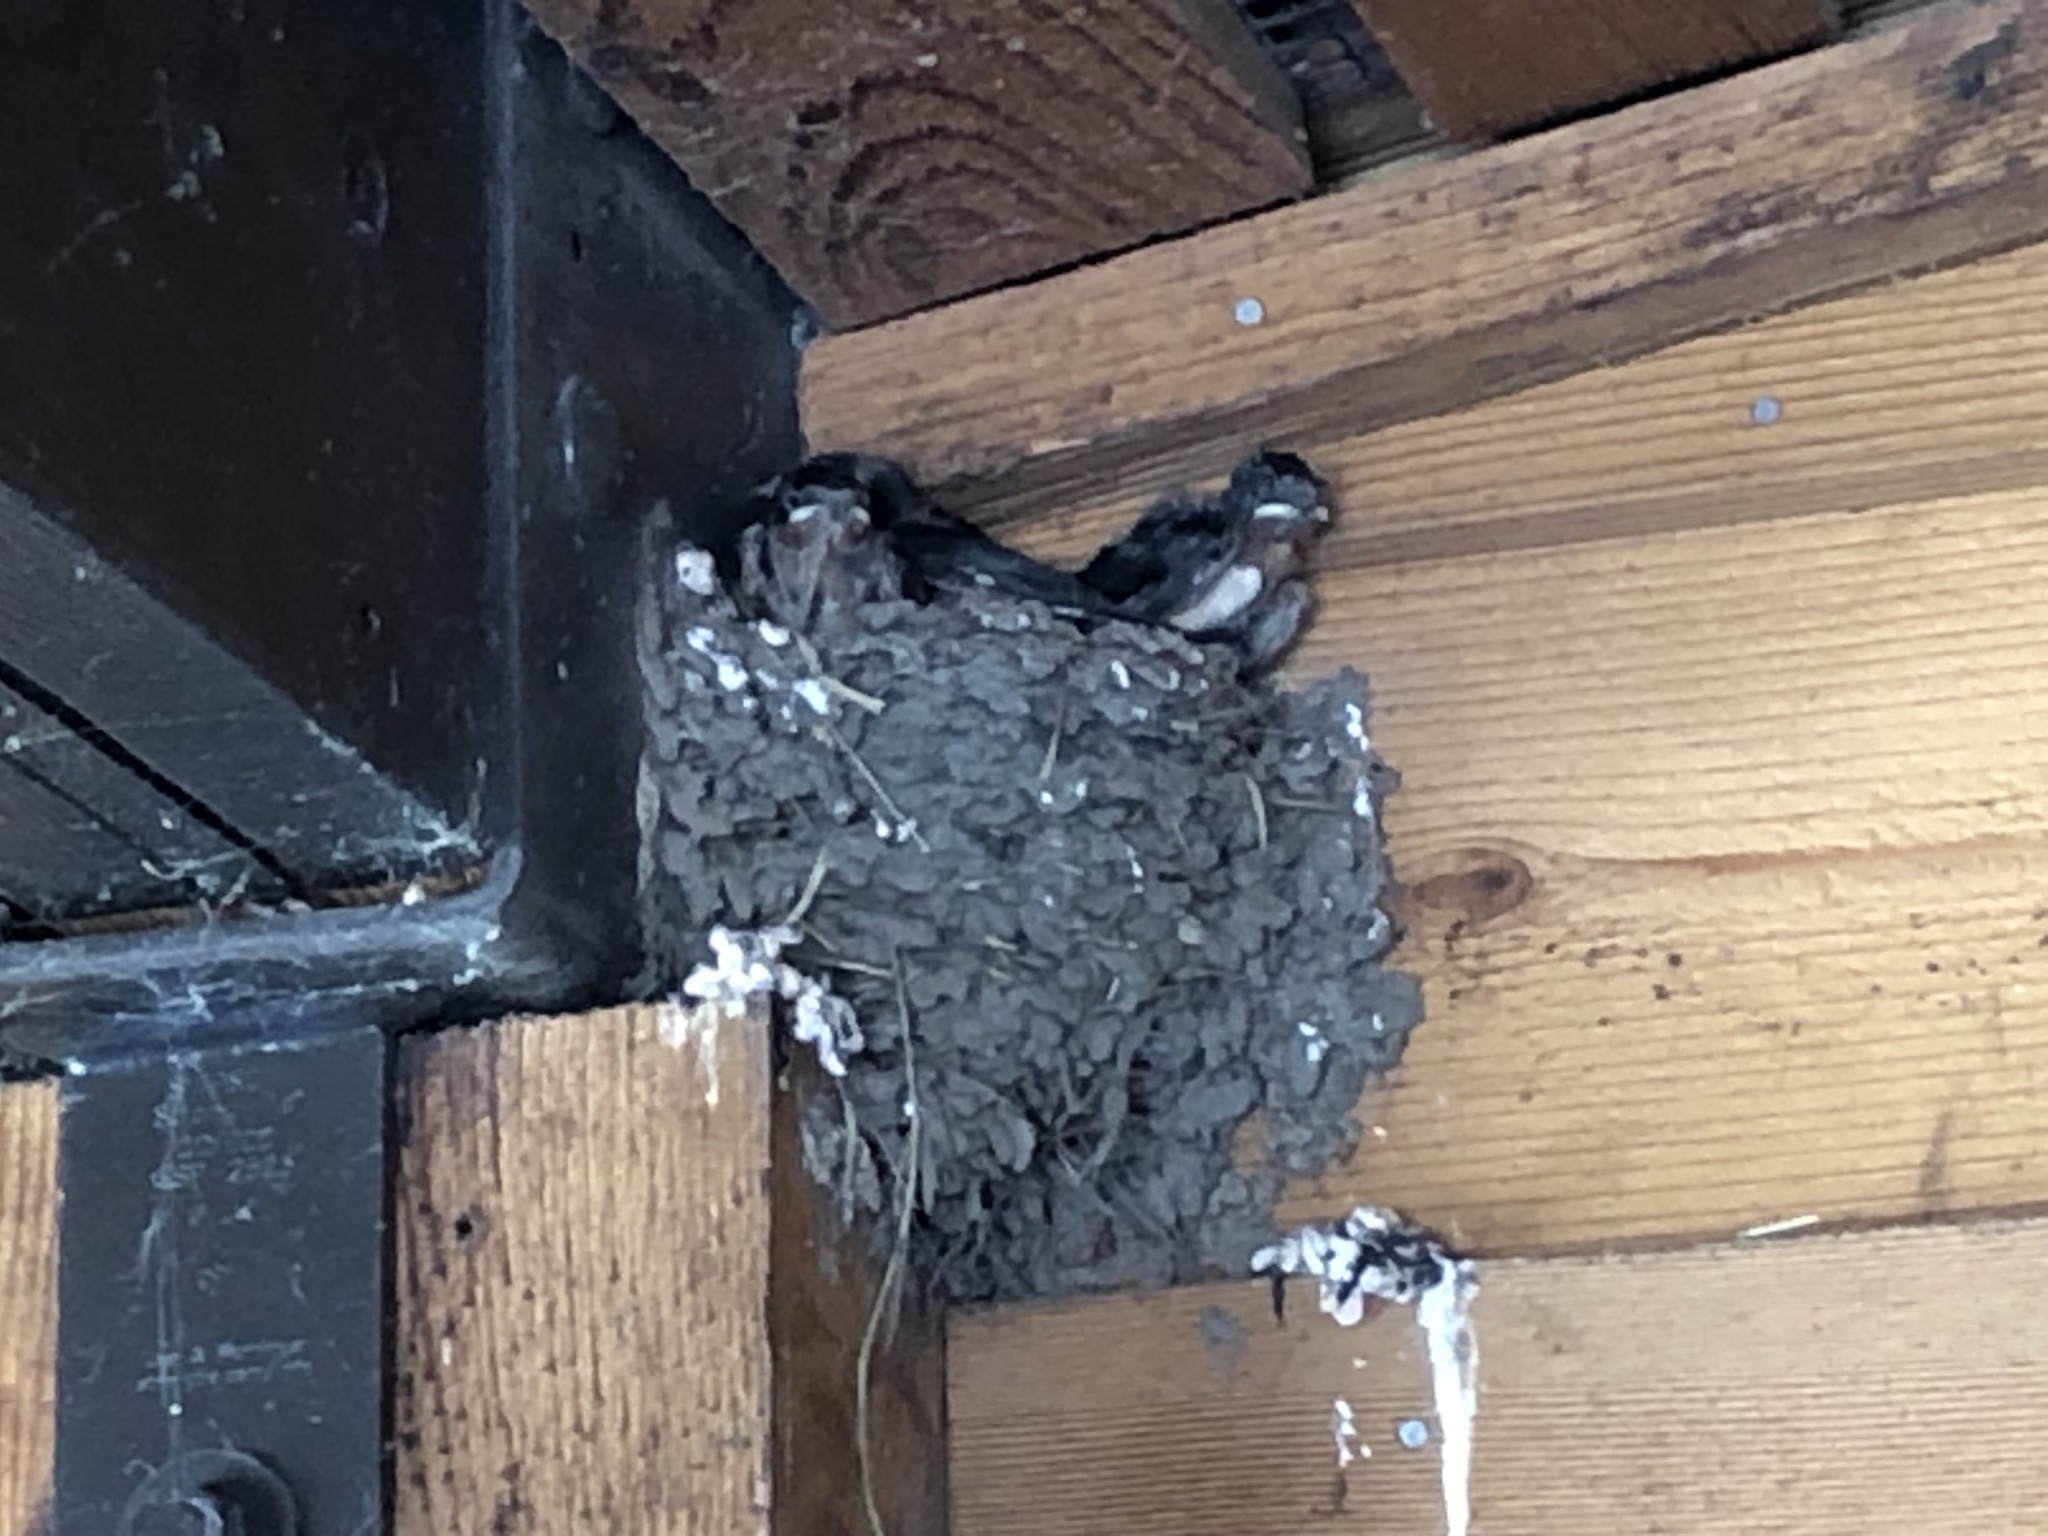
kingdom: Animalia
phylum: Chordata
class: Aves
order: Passeriformes
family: Hirundinidae
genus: Hirundo
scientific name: Hirundo rustica
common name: Barn swallow
